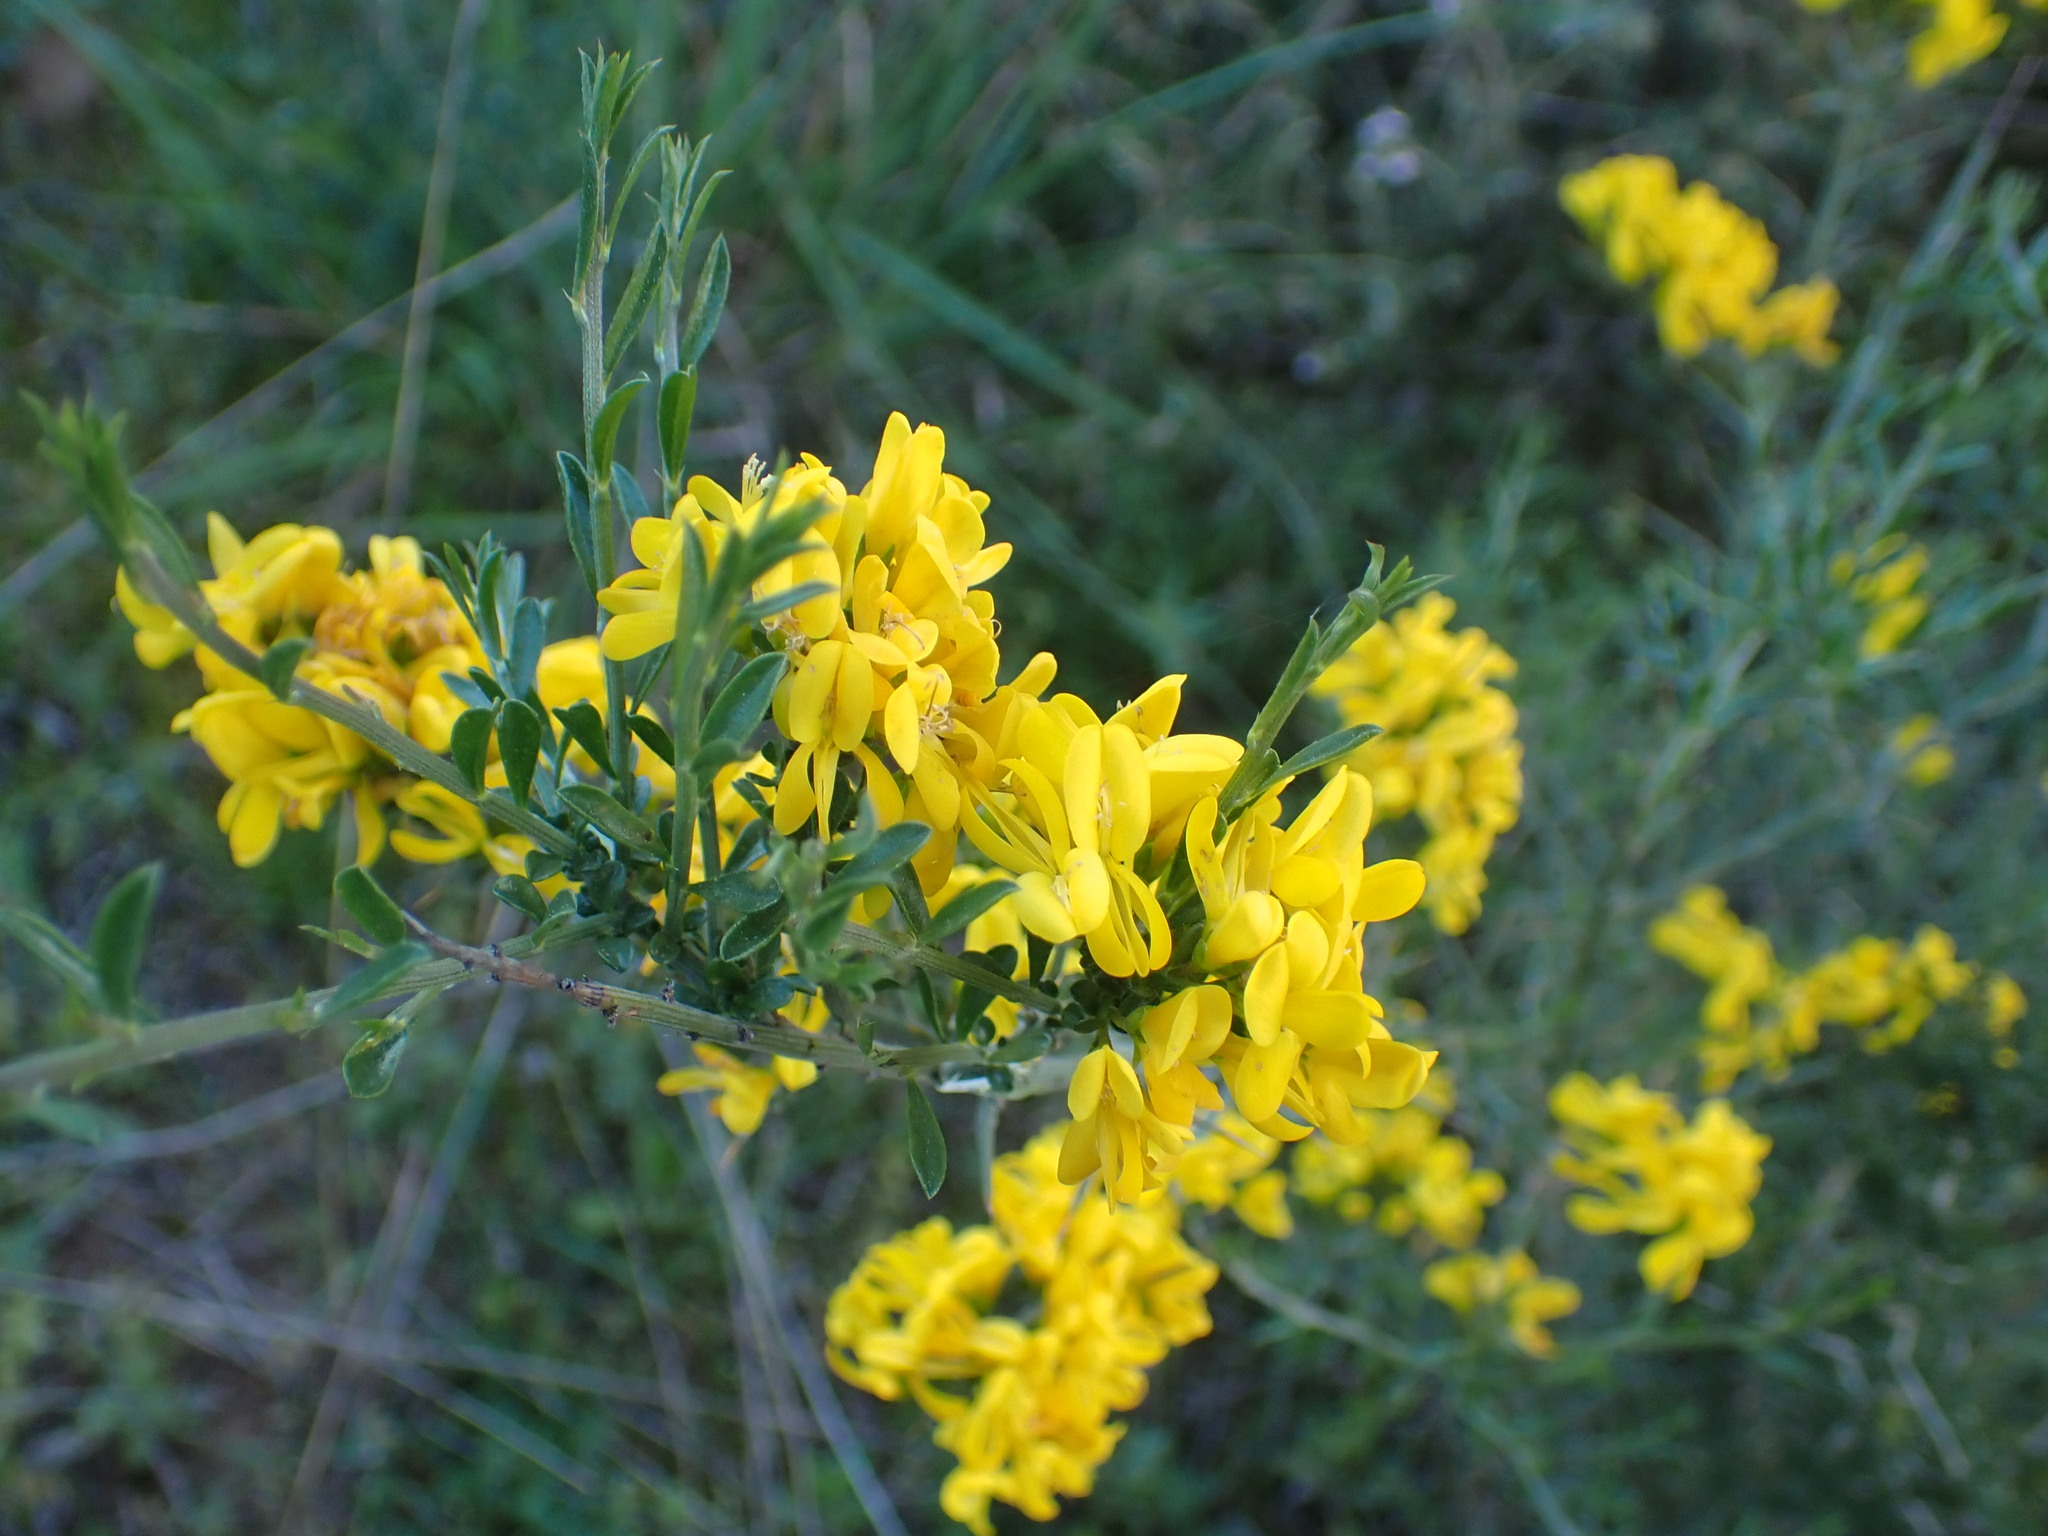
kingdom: Plantae
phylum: Tracheophyta
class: Magnoliopsida
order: Fabales
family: Fabaceae
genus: Genista
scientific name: Genista scorpius
